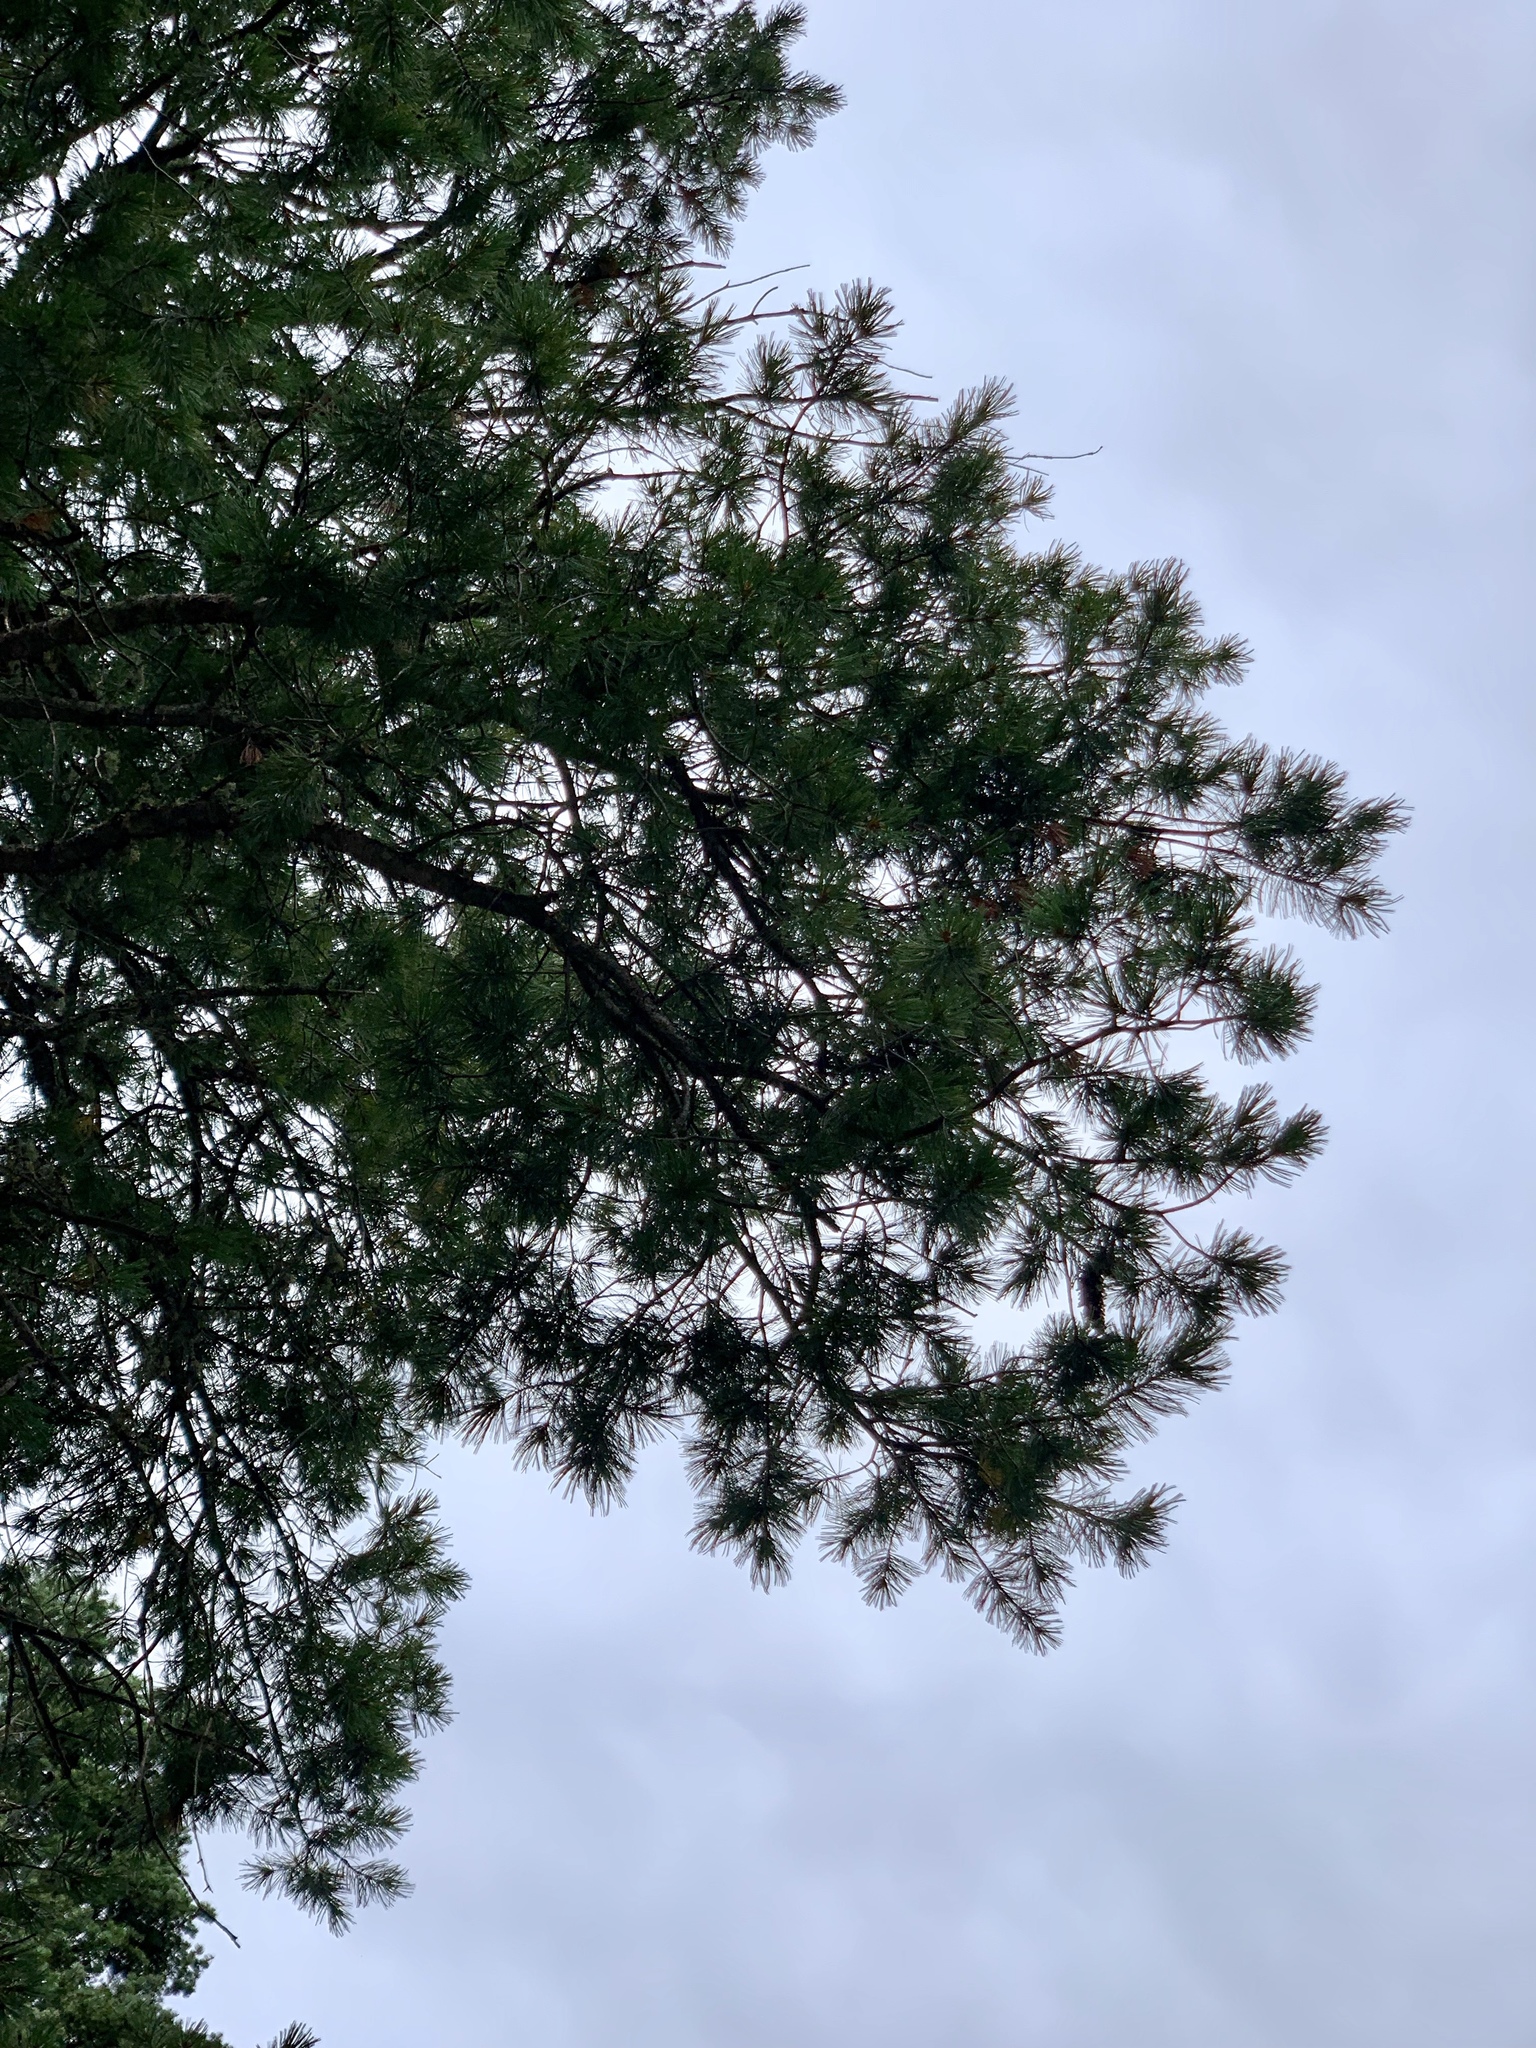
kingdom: Plantae
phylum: Tracheophyta
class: Pinopsida
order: Pinales
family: Pinaceae
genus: Pinus
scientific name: Pinus strobiformis
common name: Southwestern white pine
